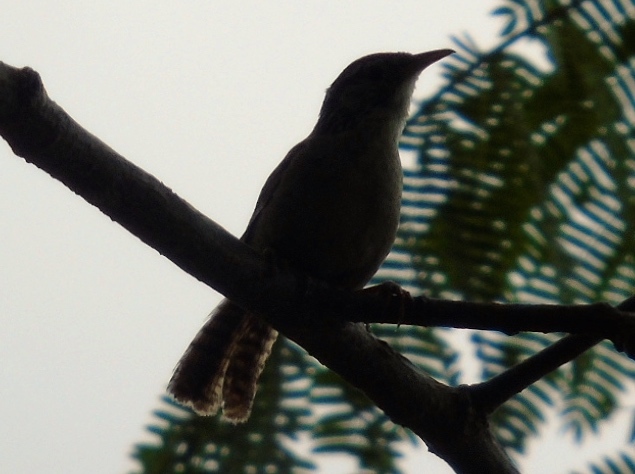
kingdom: Animalia
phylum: Chordata
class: Aves
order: Passeriformes
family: Troglodytidae
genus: Thryophilus
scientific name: Thryophilus sinaloa
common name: Sinaloa wren
